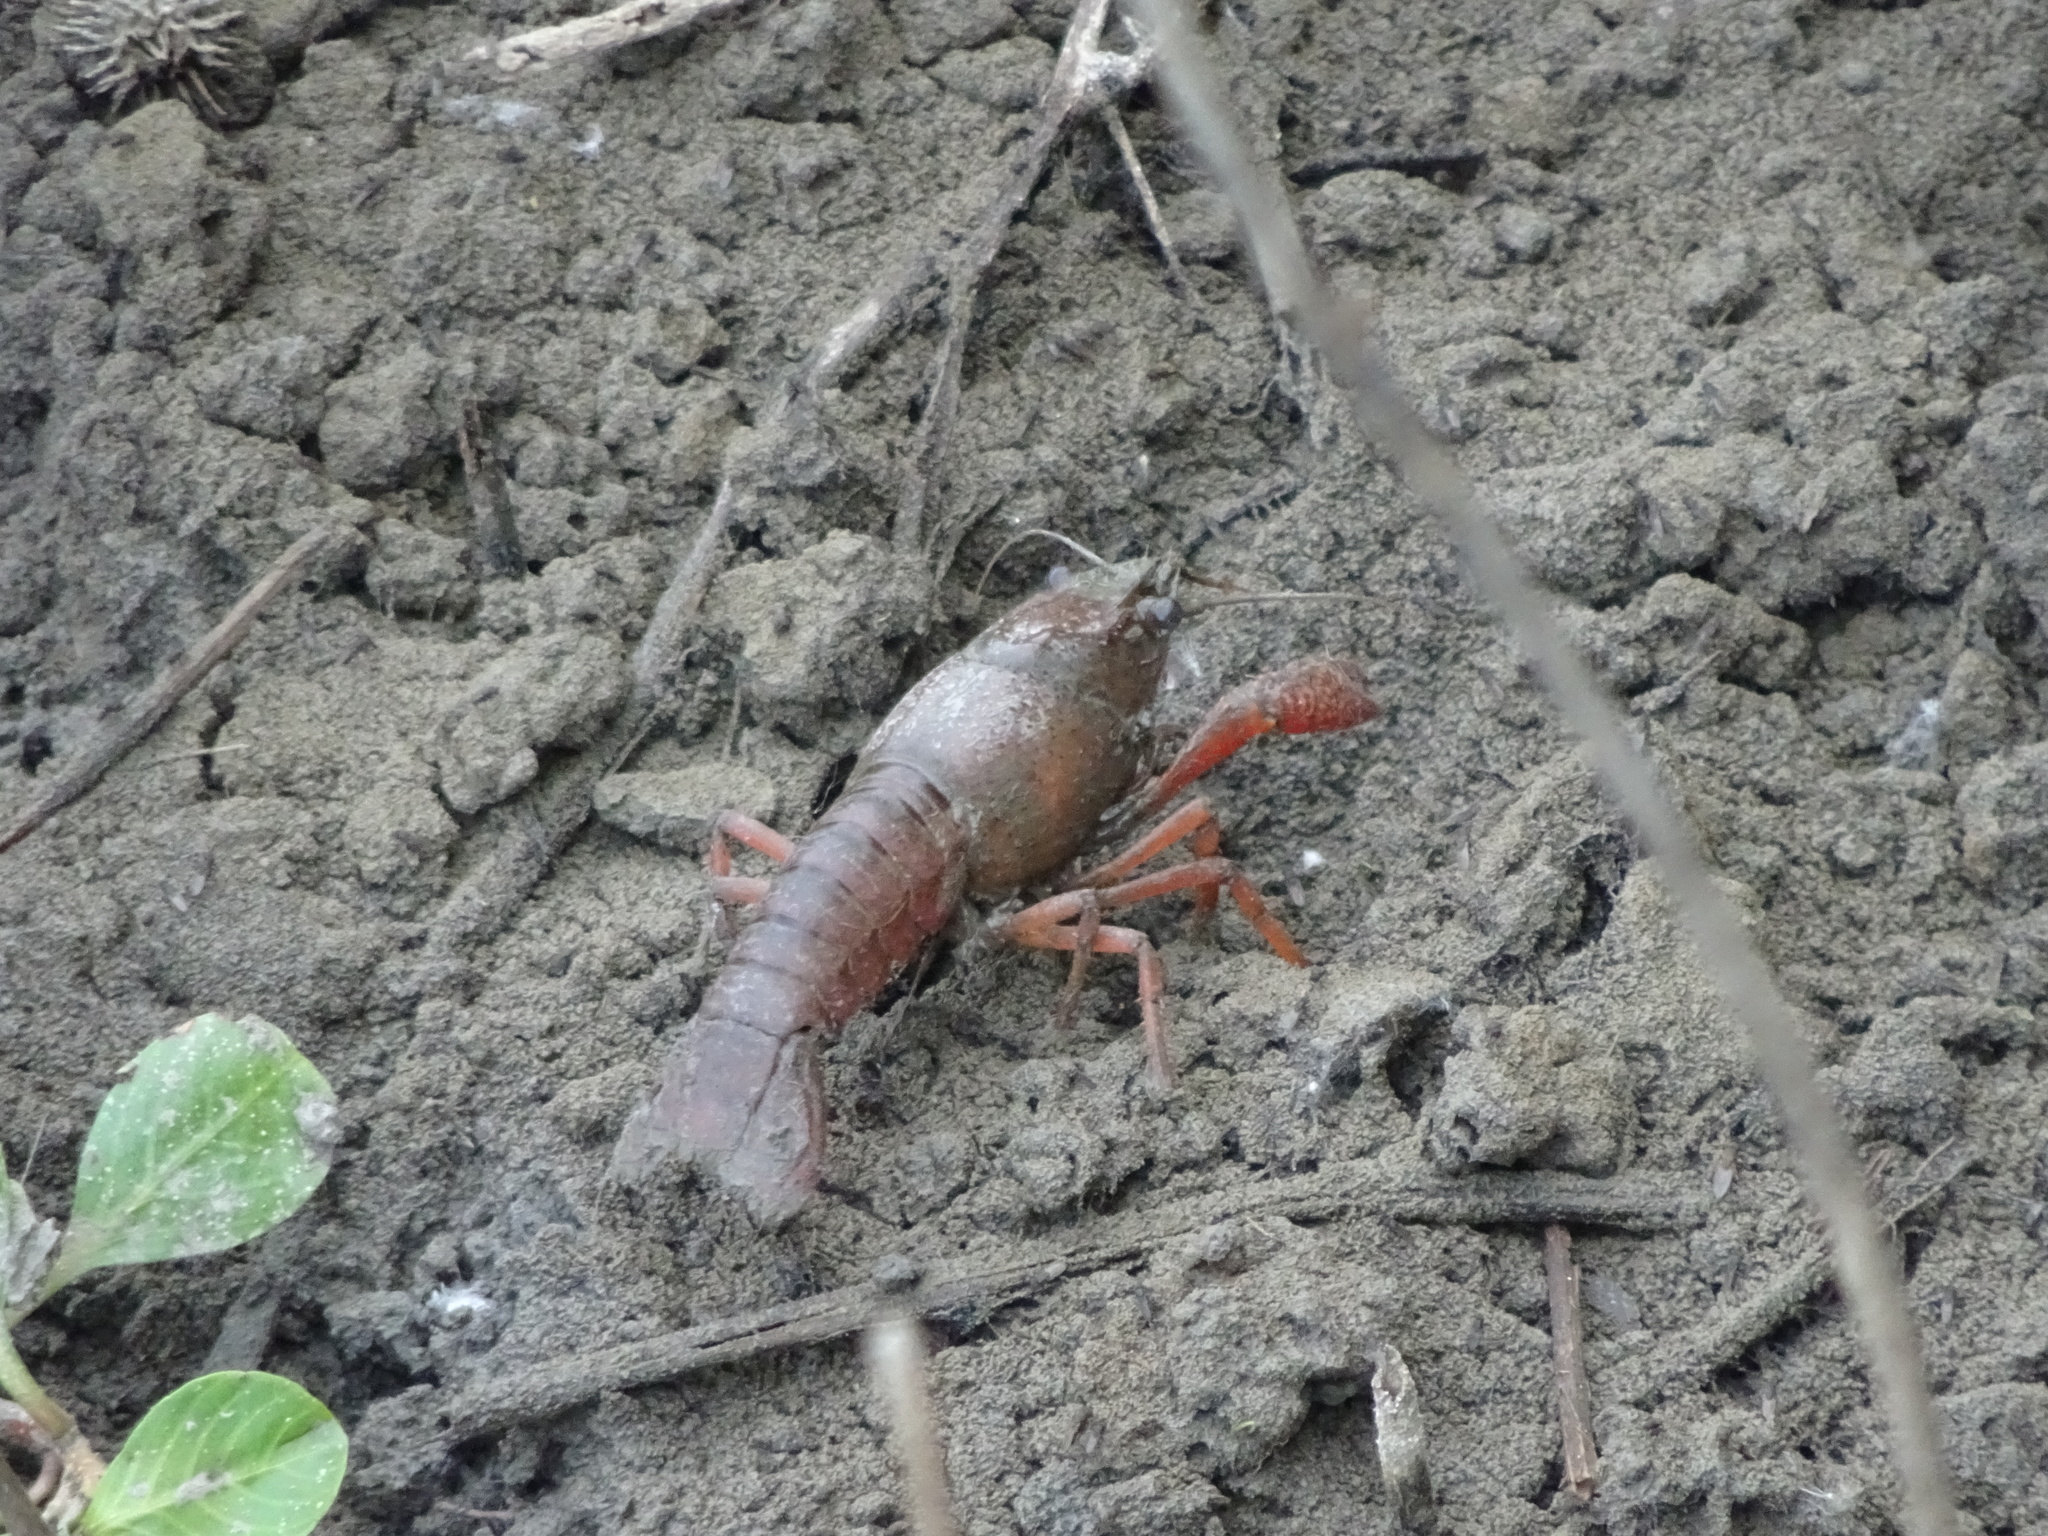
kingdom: Animalia
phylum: Arthropoda
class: Malacostraca
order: Decapoda
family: Cambaridae
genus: Procambarus
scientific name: Procambarus clarkii
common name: Red swamp crayfish
